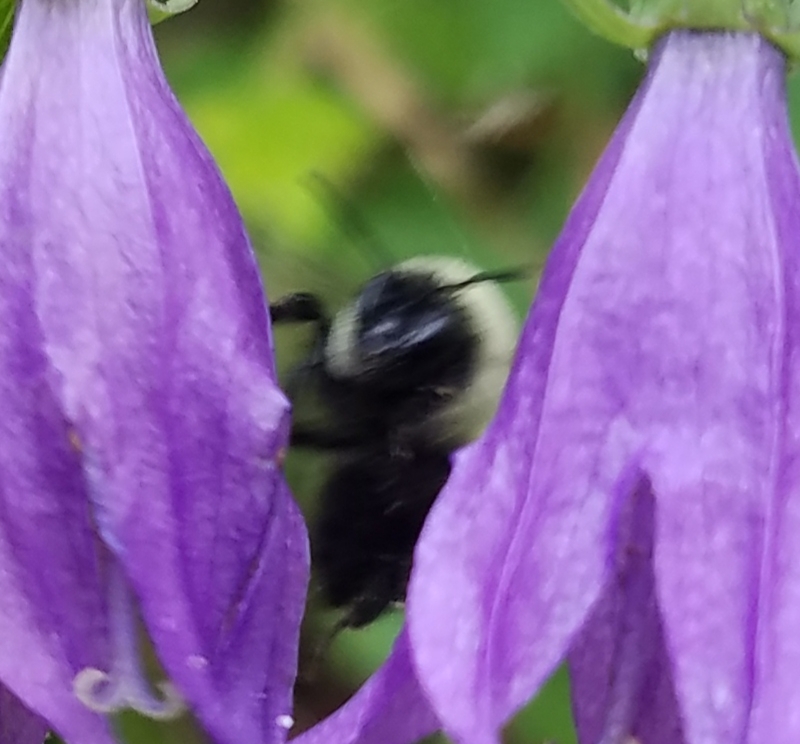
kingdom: Animalia
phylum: Arthropoda
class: Insecta
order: Hymenoptera
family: Apidae
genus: Bombus
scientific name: Bombus impatiens
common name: Common eastern bumble bee
